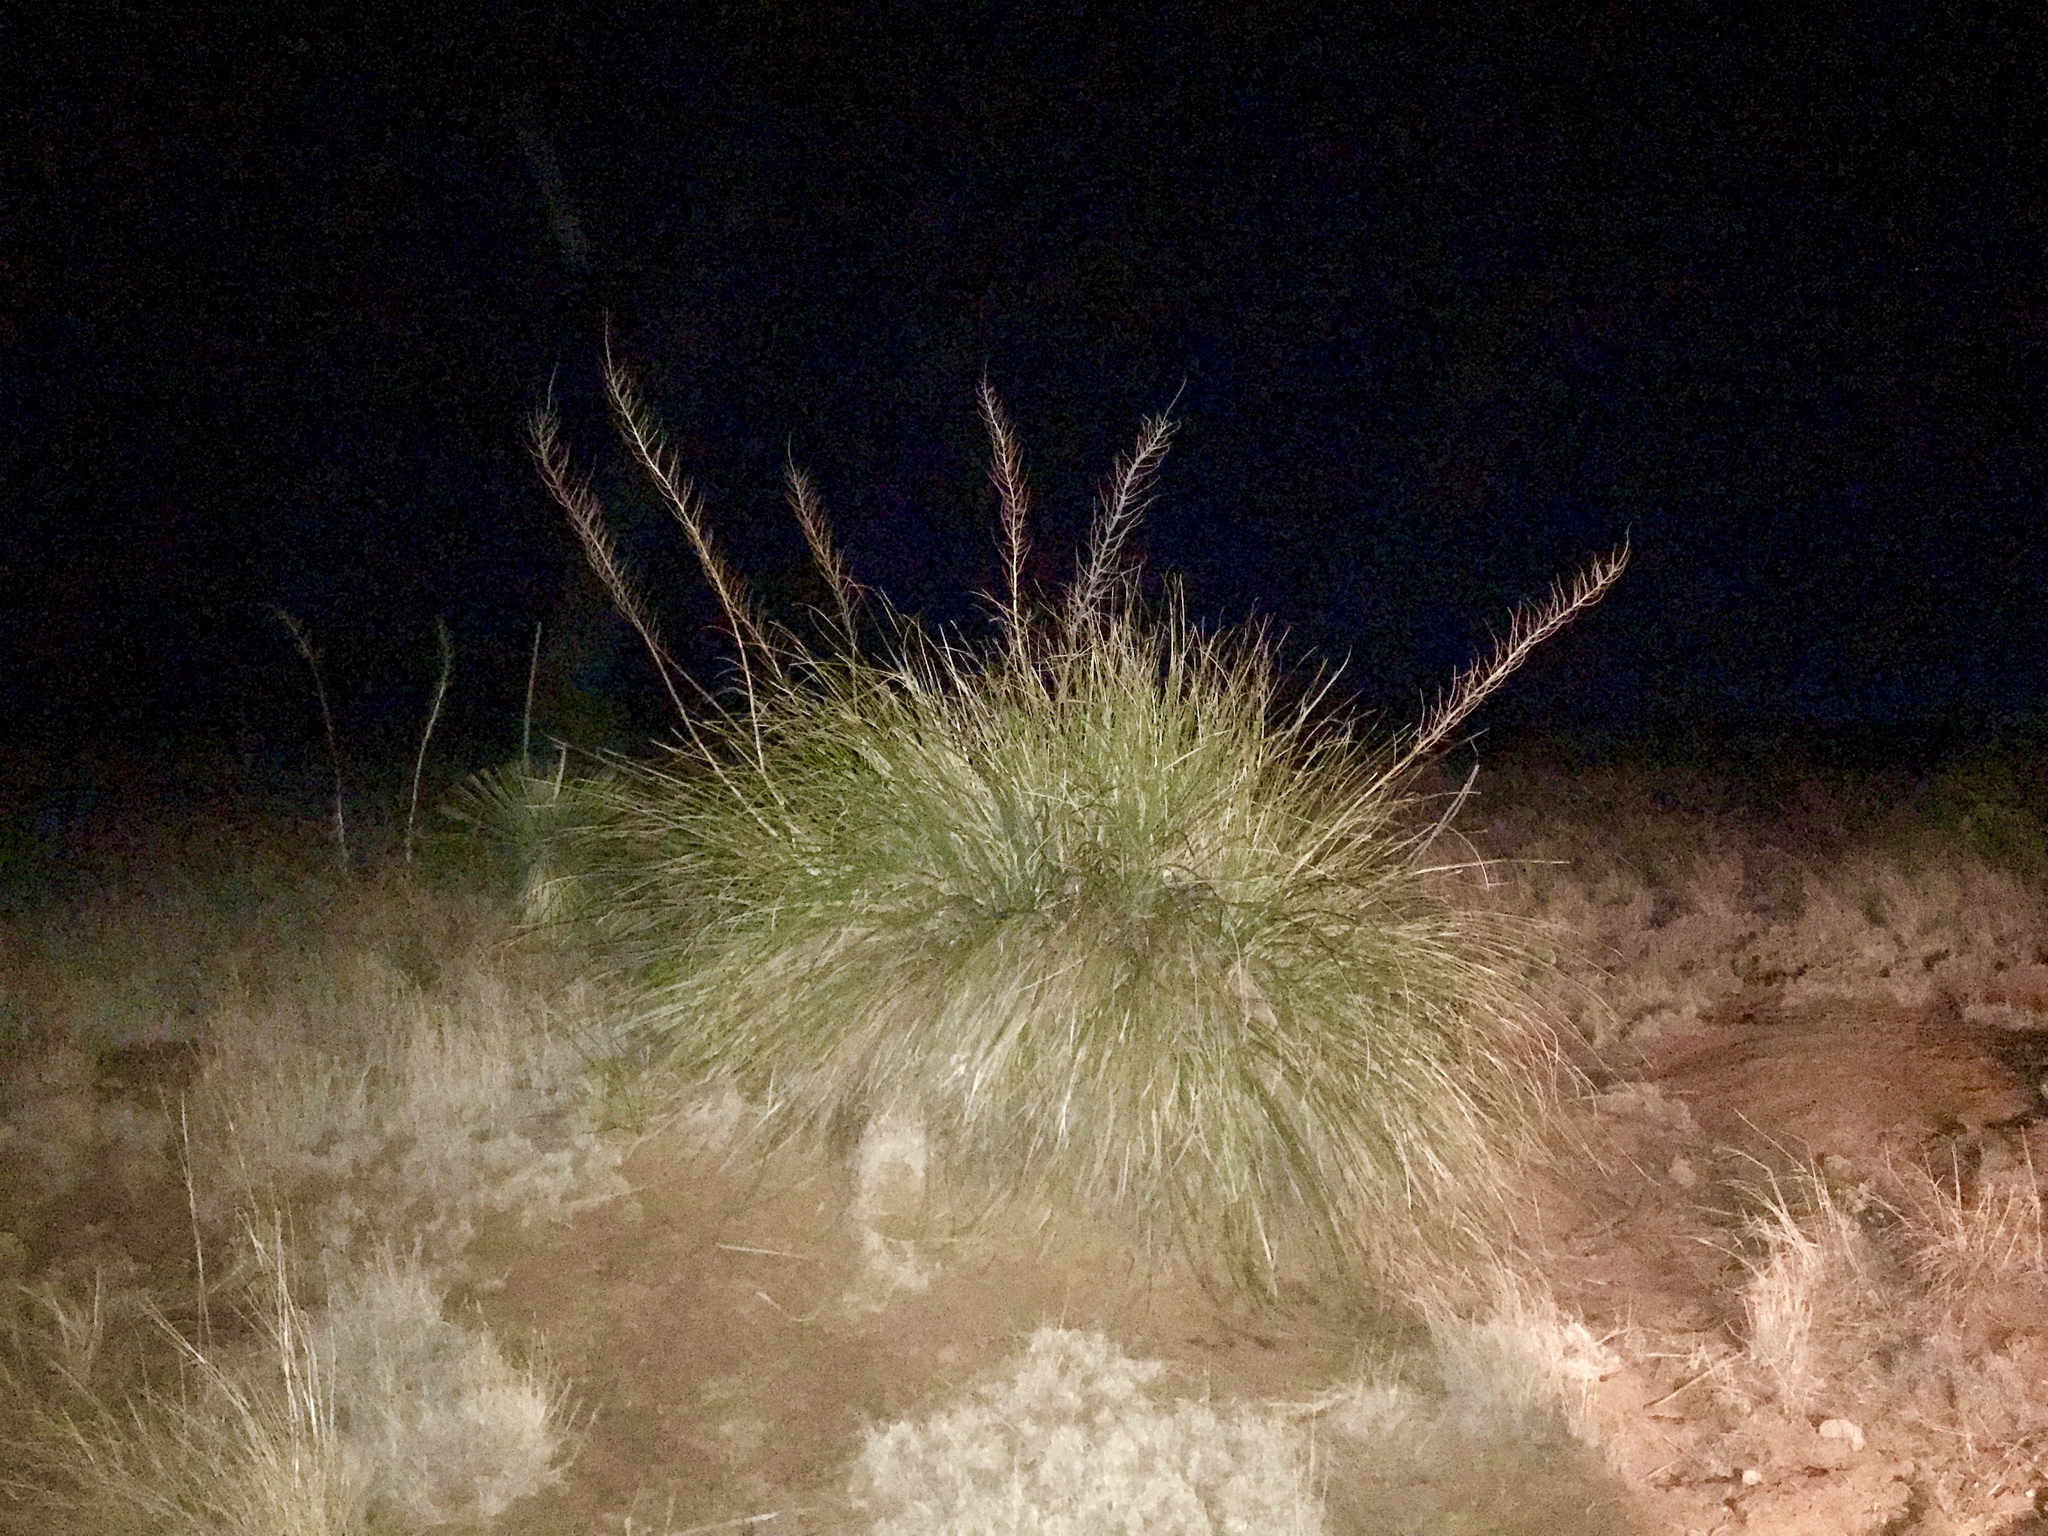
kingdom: Plantae
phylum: Tracheophyta
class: Liliopsida
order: Asparagales
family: Asparagaceae
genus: Nolina
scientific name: Nolina microcarpa
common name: Bear-grass
